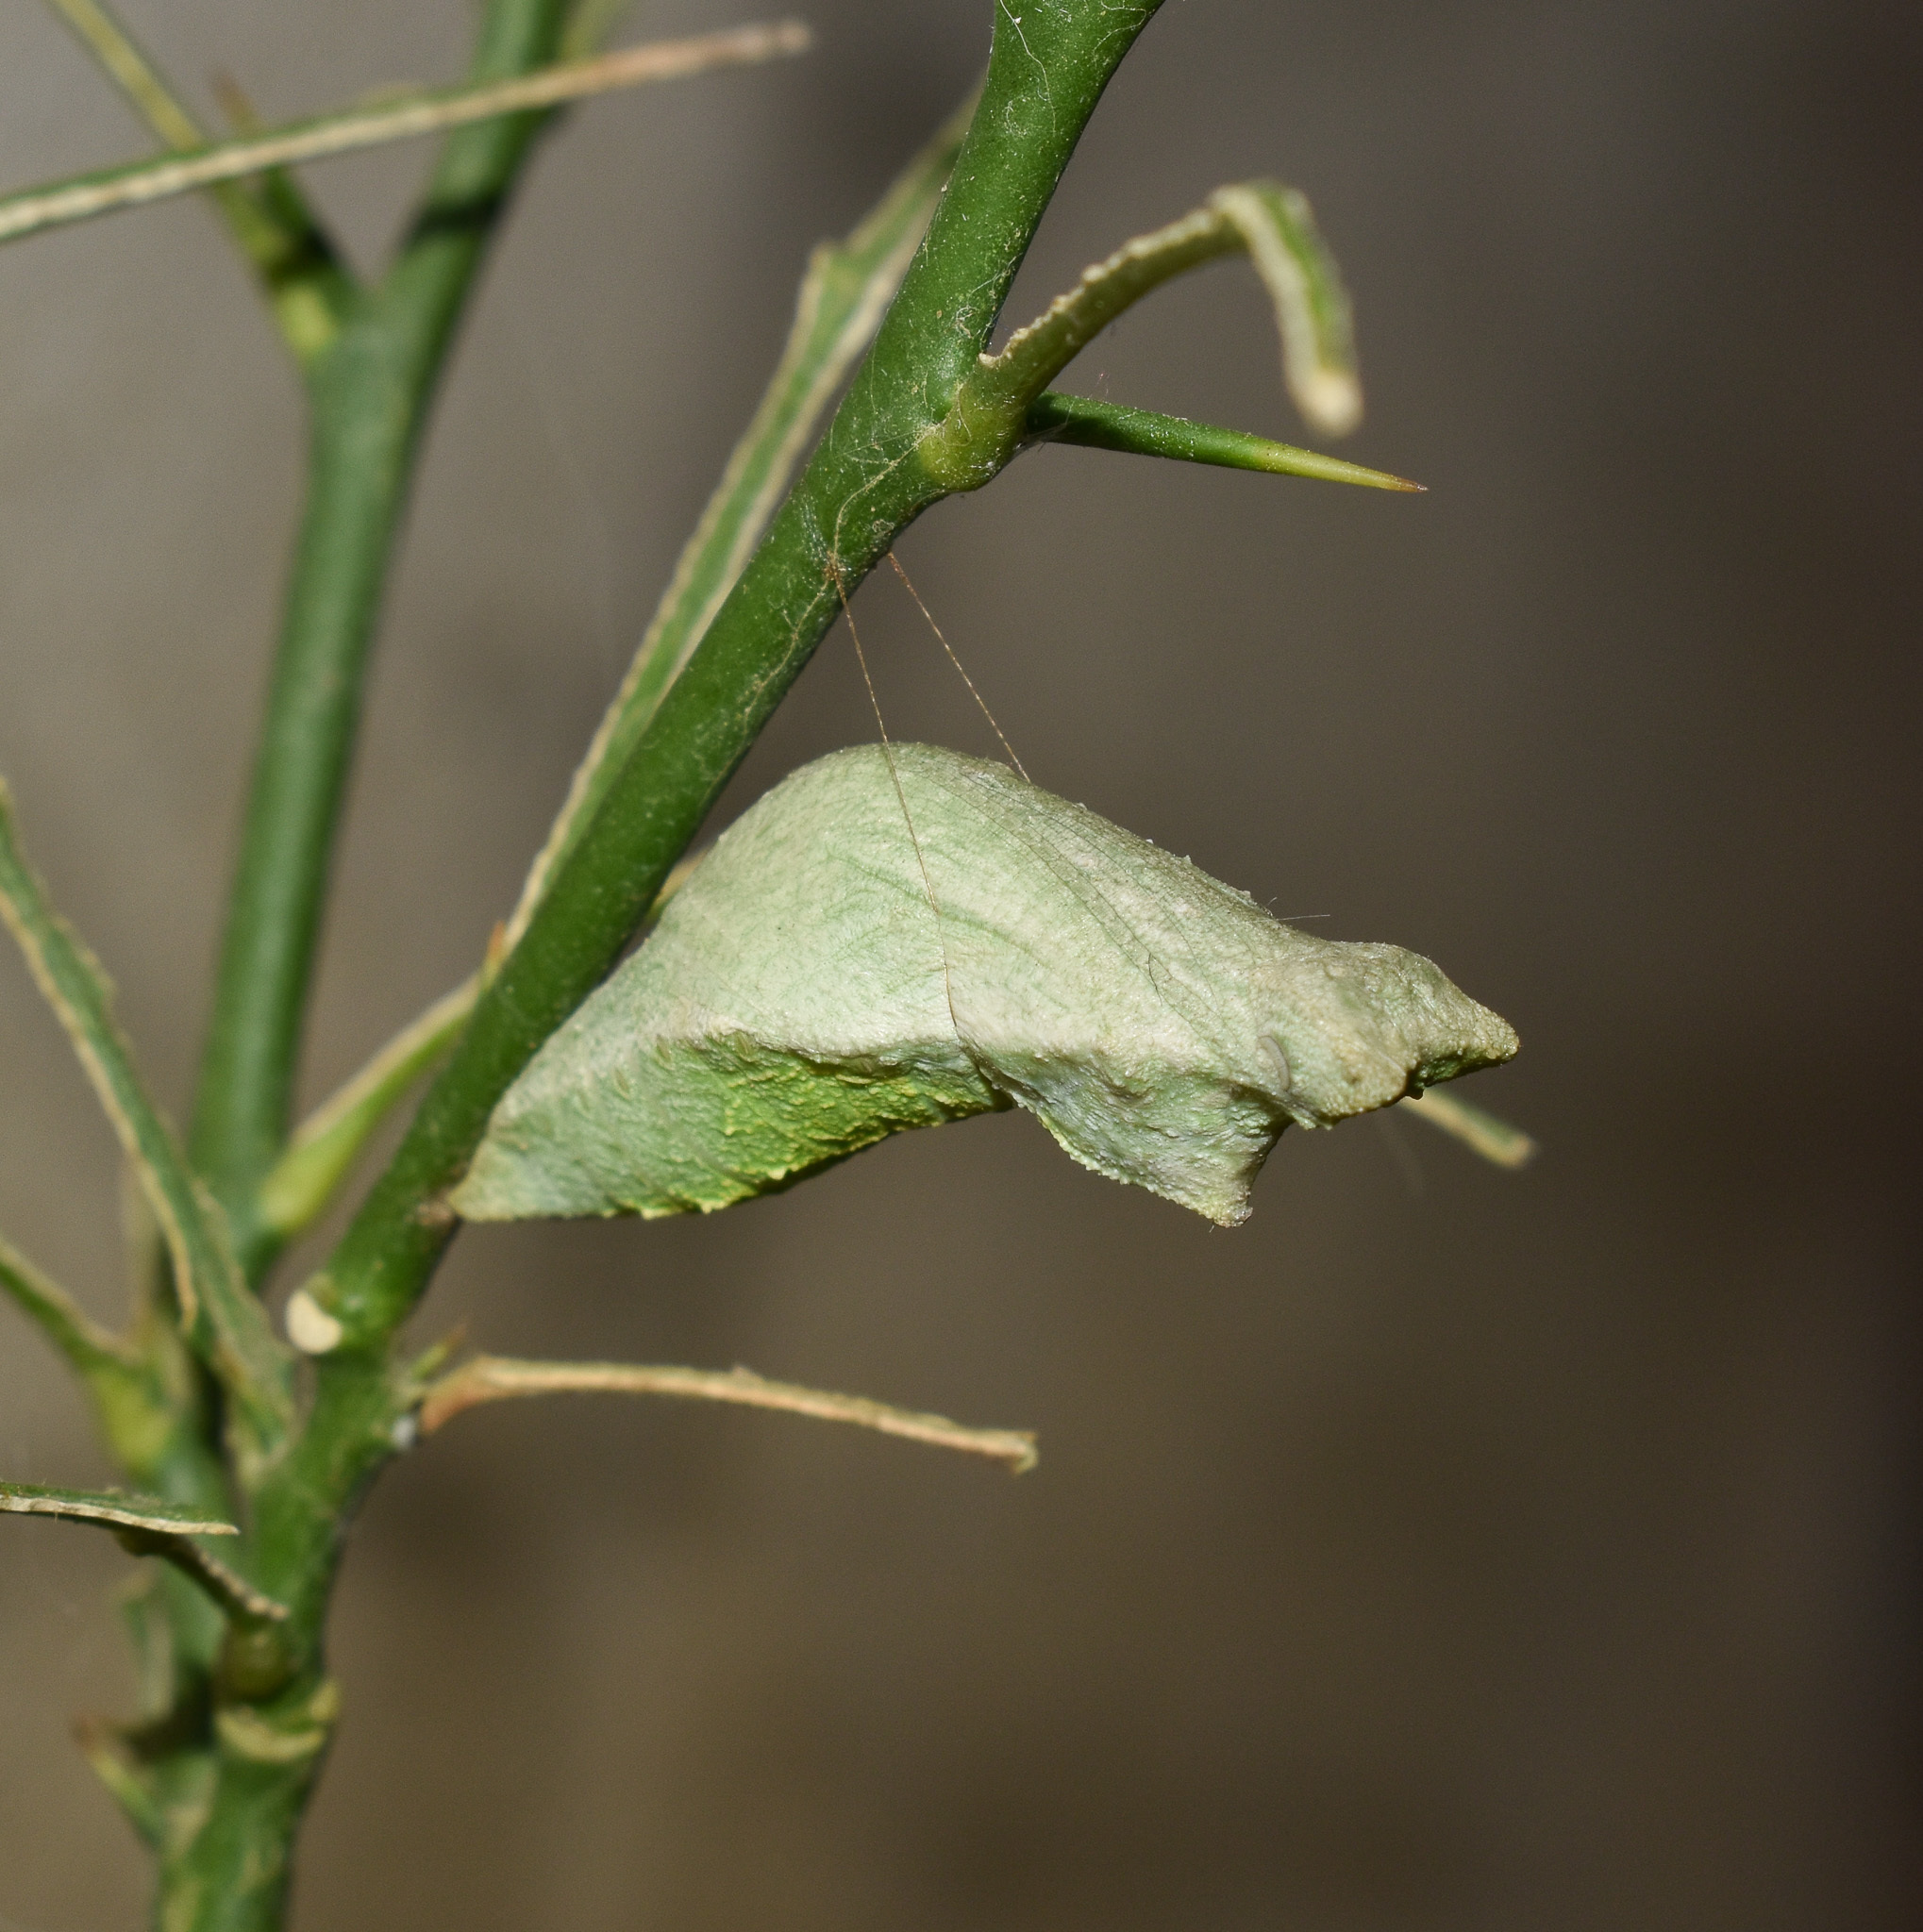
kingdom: Animalia
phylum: Arthropoda
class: Insecta
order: Lepidoptera
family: Papilionidae
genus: Papilio
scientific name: Papilio demoleus
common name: Lime butterfly
